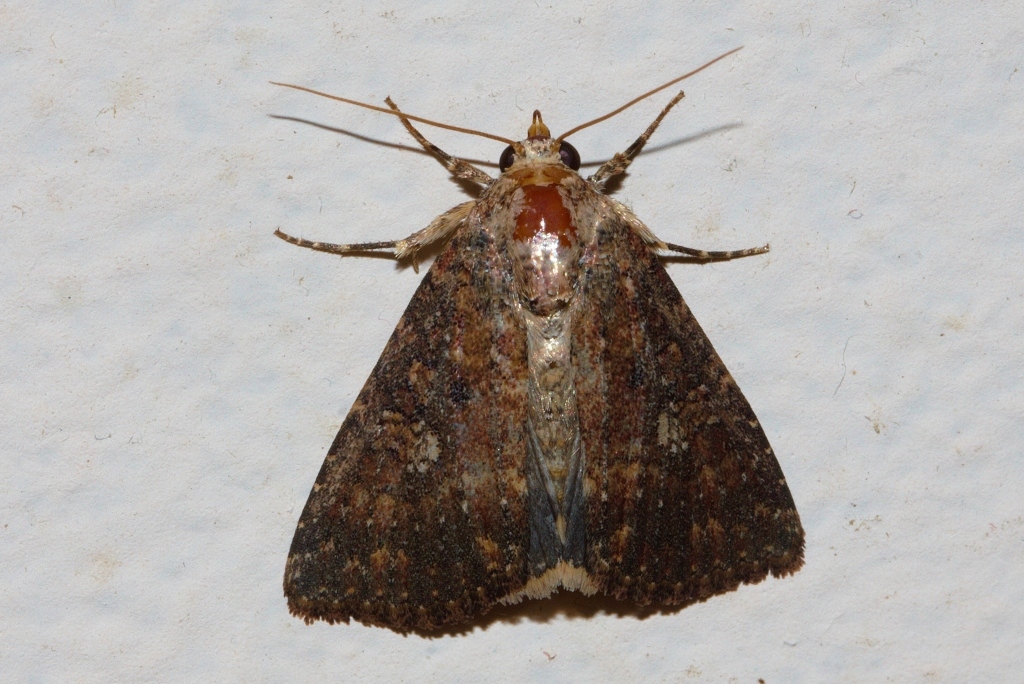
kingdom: Animalia
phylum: Arthropoda
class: Insecta
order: Lepidoptera
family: Noctuidae
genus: Condica
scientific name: Condica capensis
